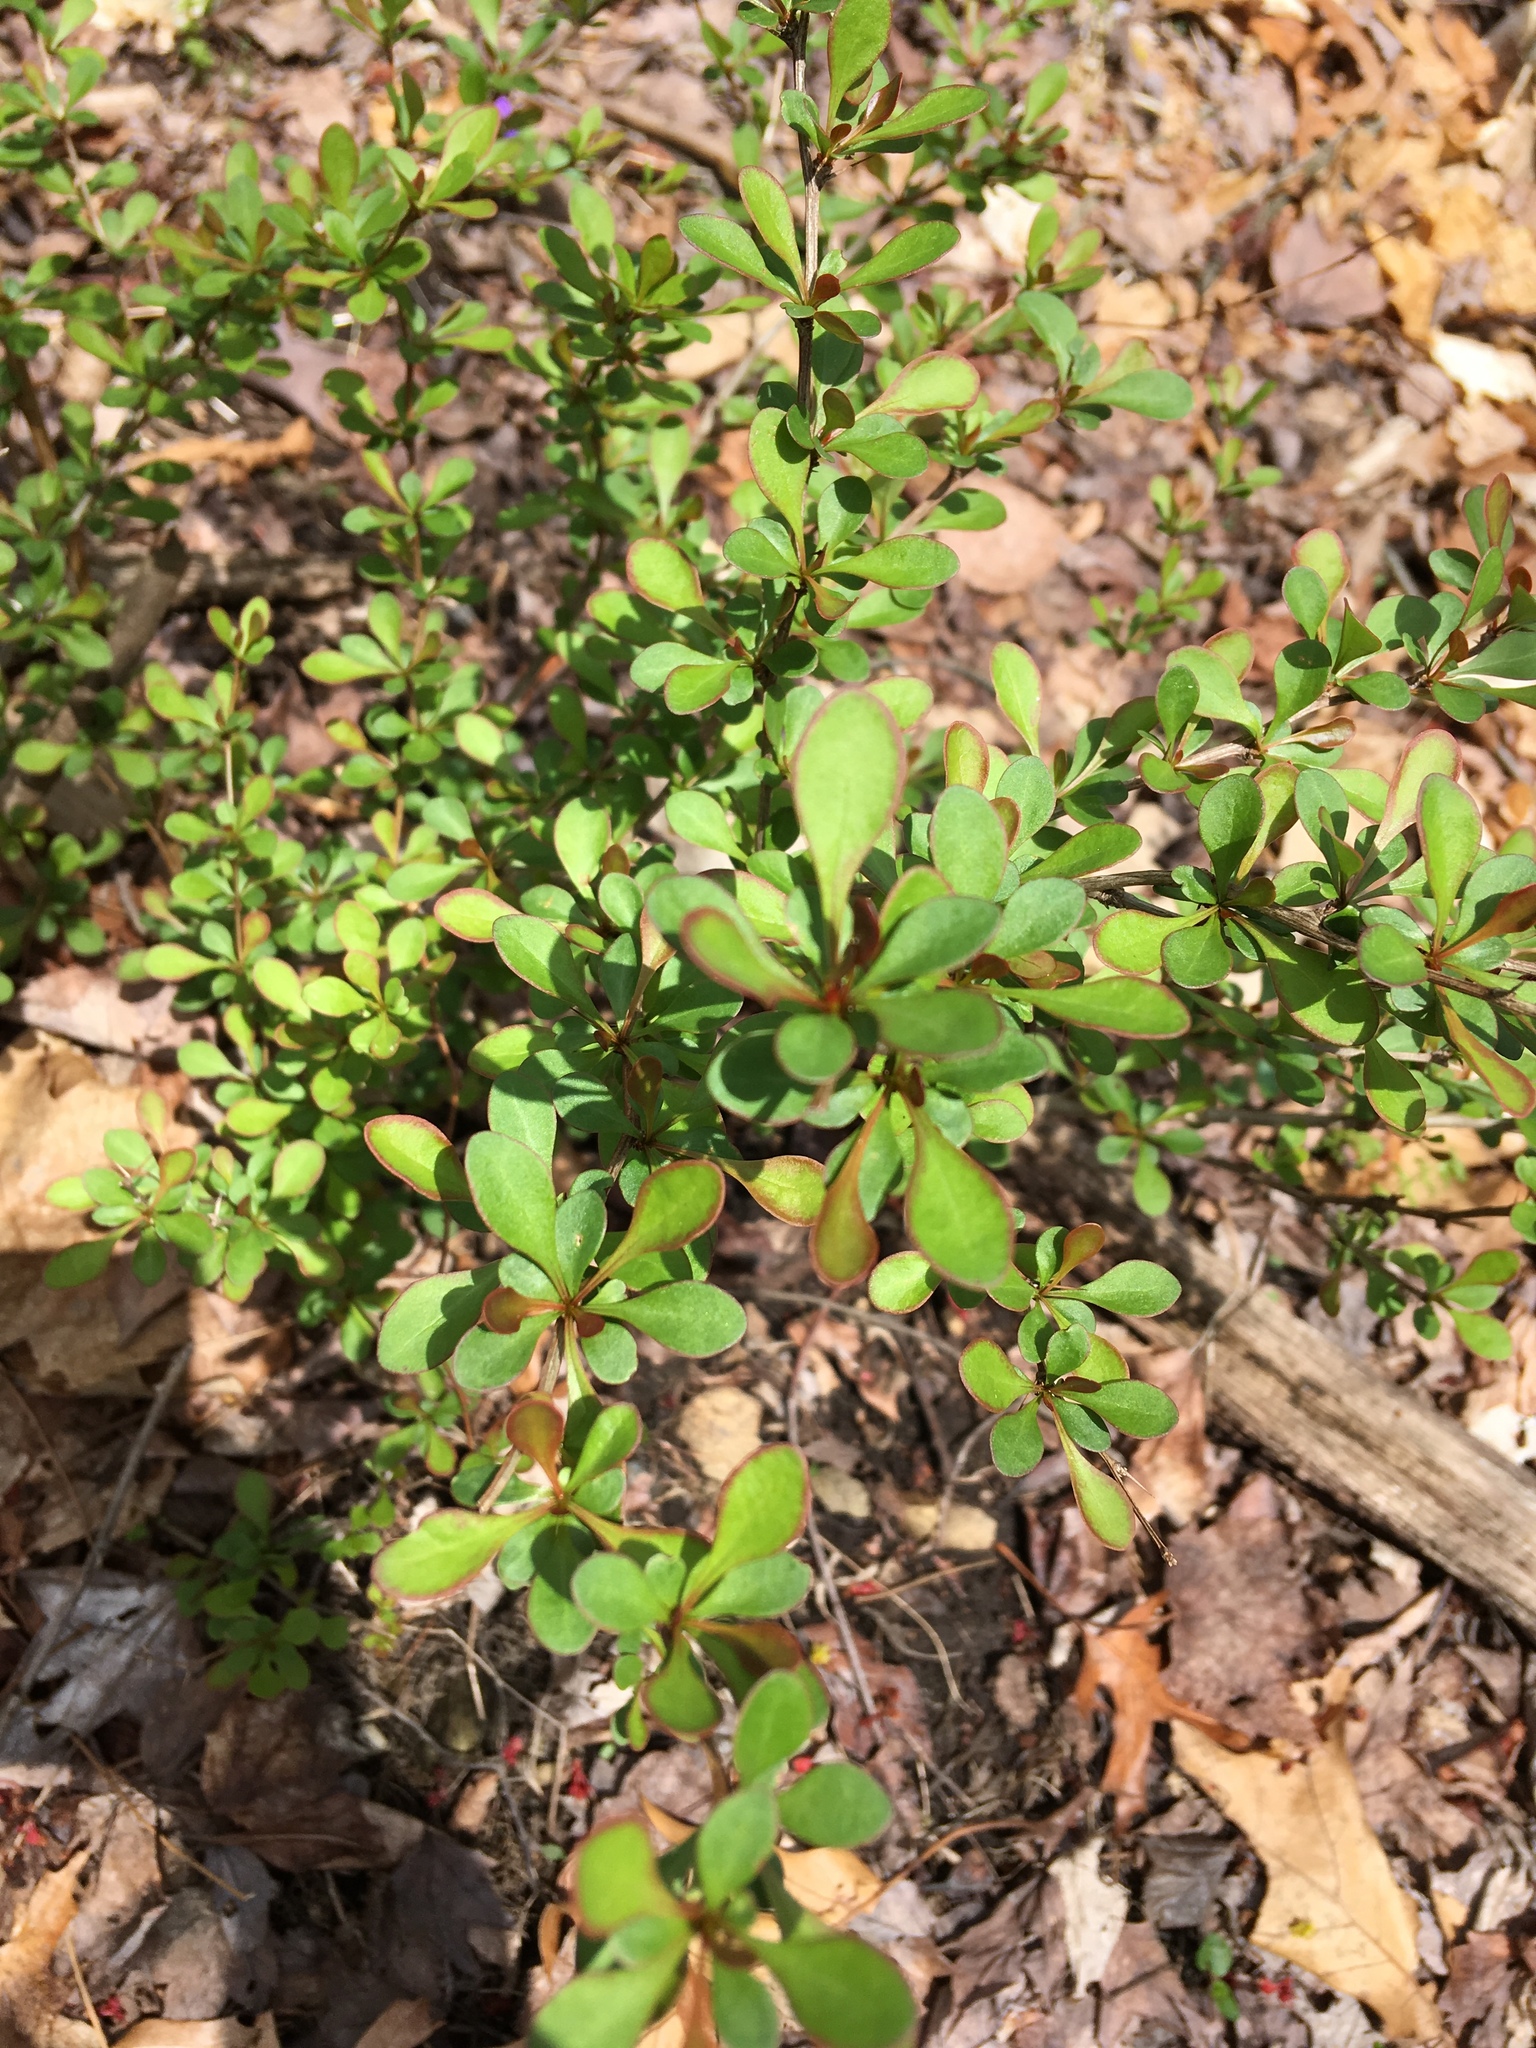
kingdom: Plantae
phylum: Tracheophyta
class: Magnoliopsida
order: Ranunculales
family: Berberidaceae
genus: Berberis
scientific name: Berberis thunbergii
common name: Japanese barberry
